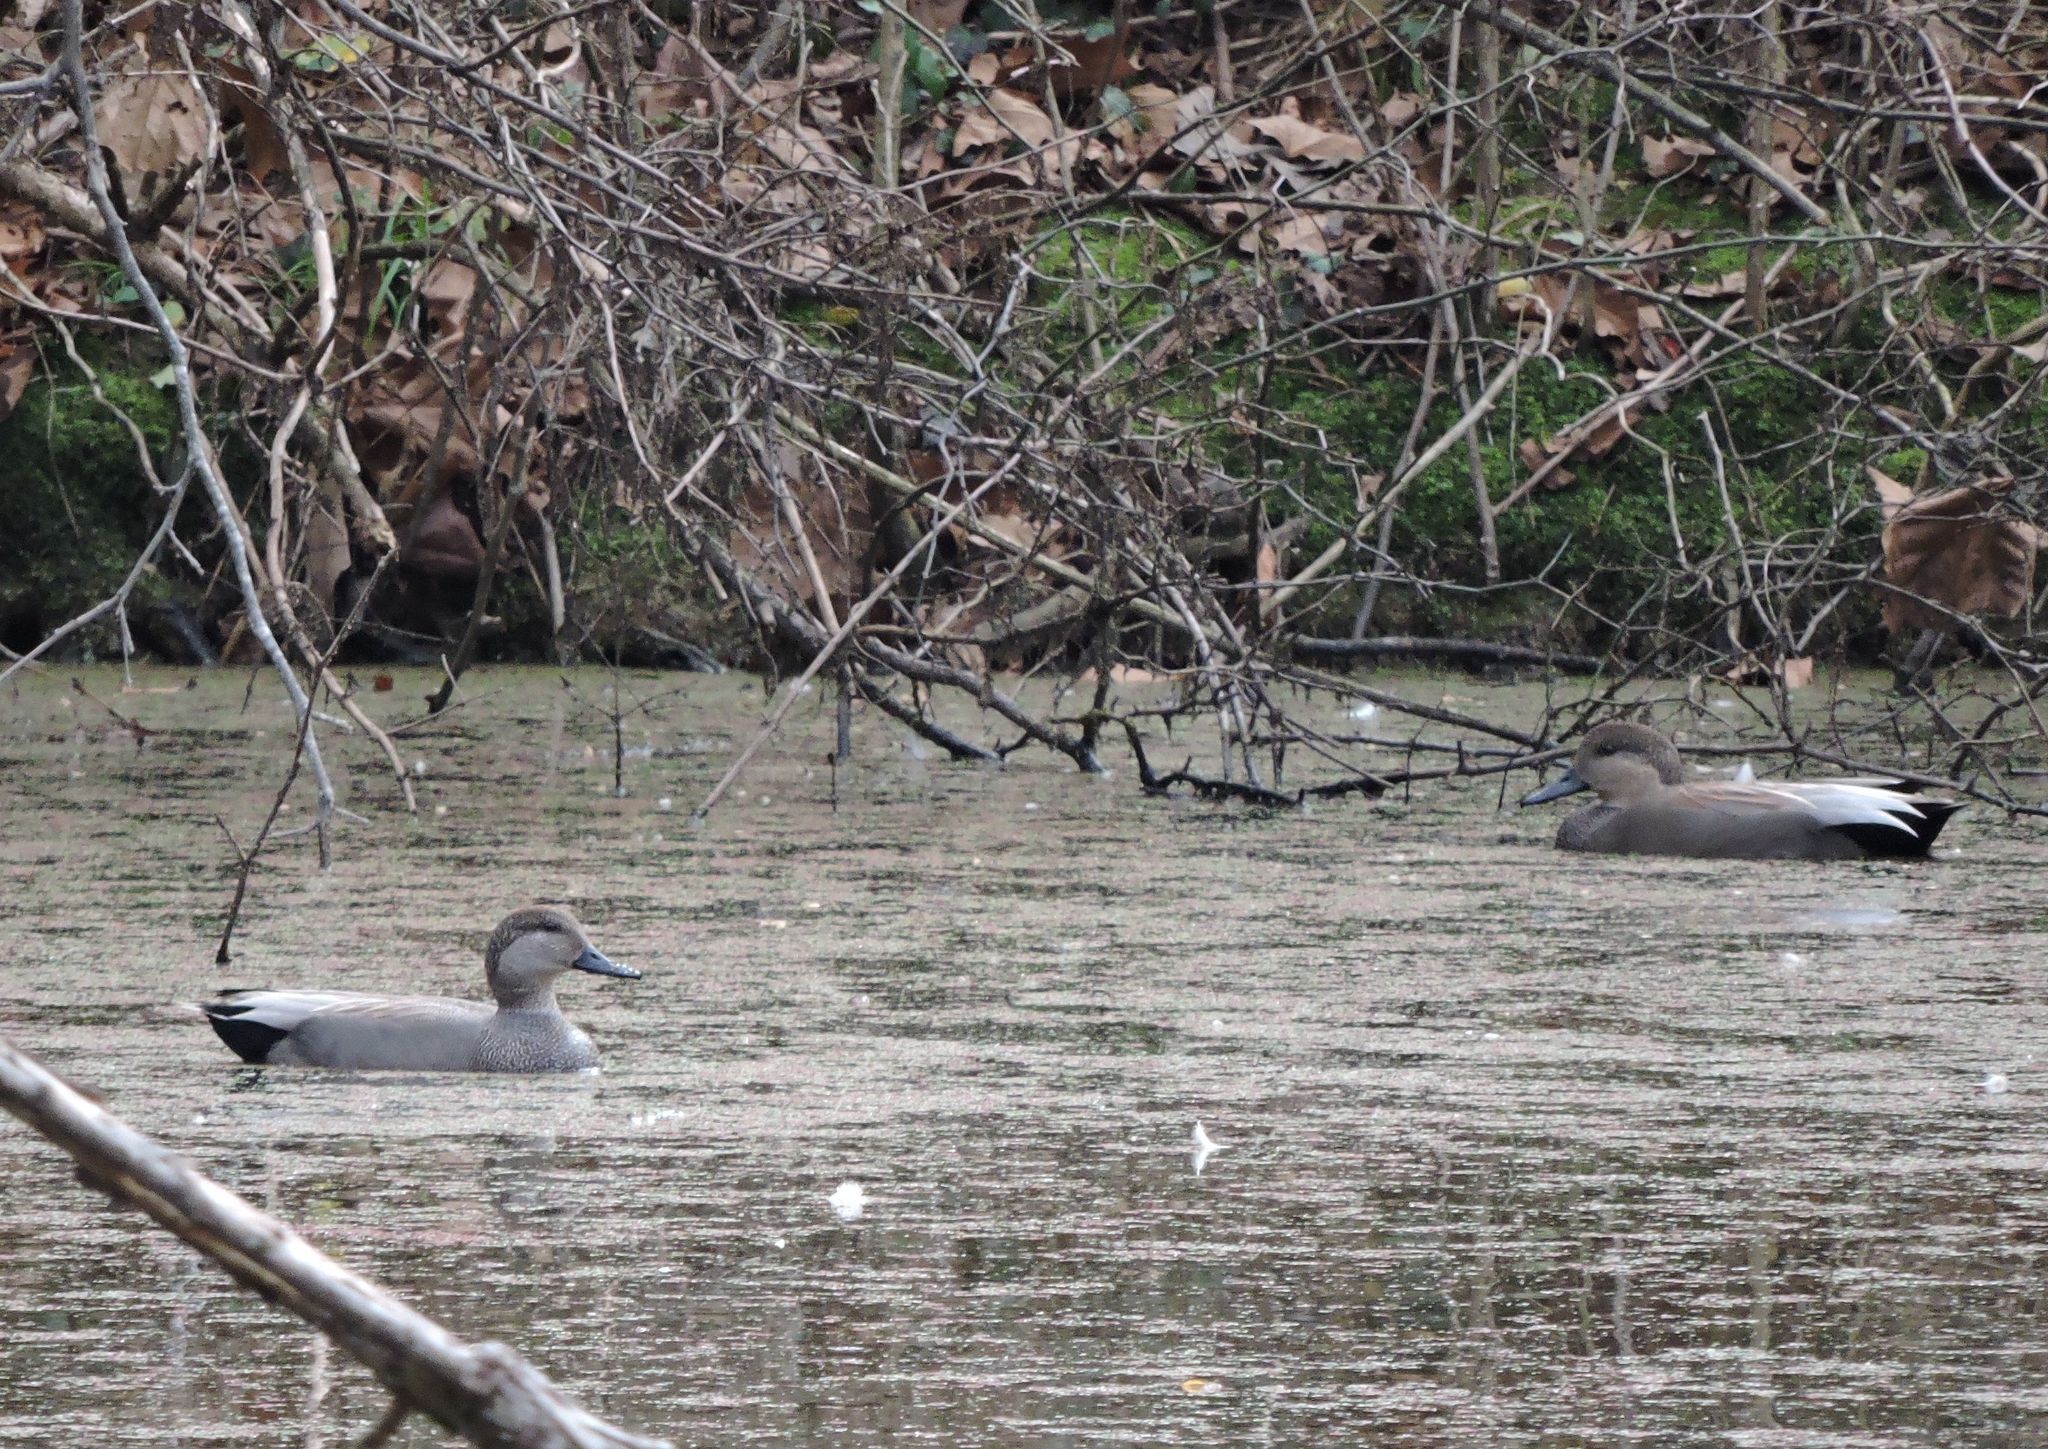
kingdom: Animalia
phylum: Chordata
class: Aves
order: Anseriformes
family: Anatidae
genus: Mareca
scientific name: Mareca strepera
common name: Gadwall
